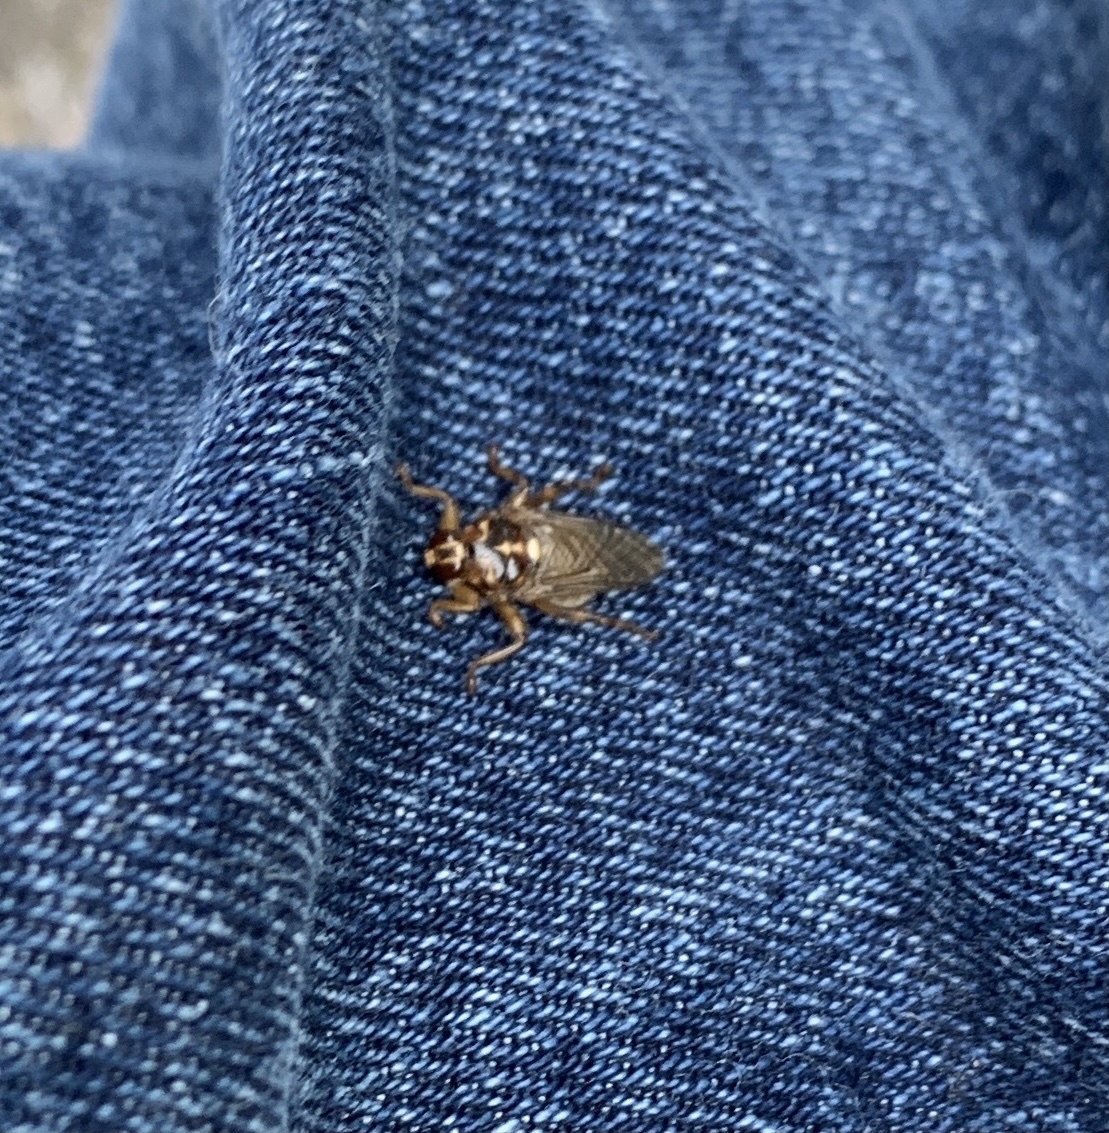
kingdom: Animalia
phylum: Arthropoda
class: Insecta
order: Diptera
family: Hippoboscidae
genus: Hippobosca
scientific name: Hippobosca equina
